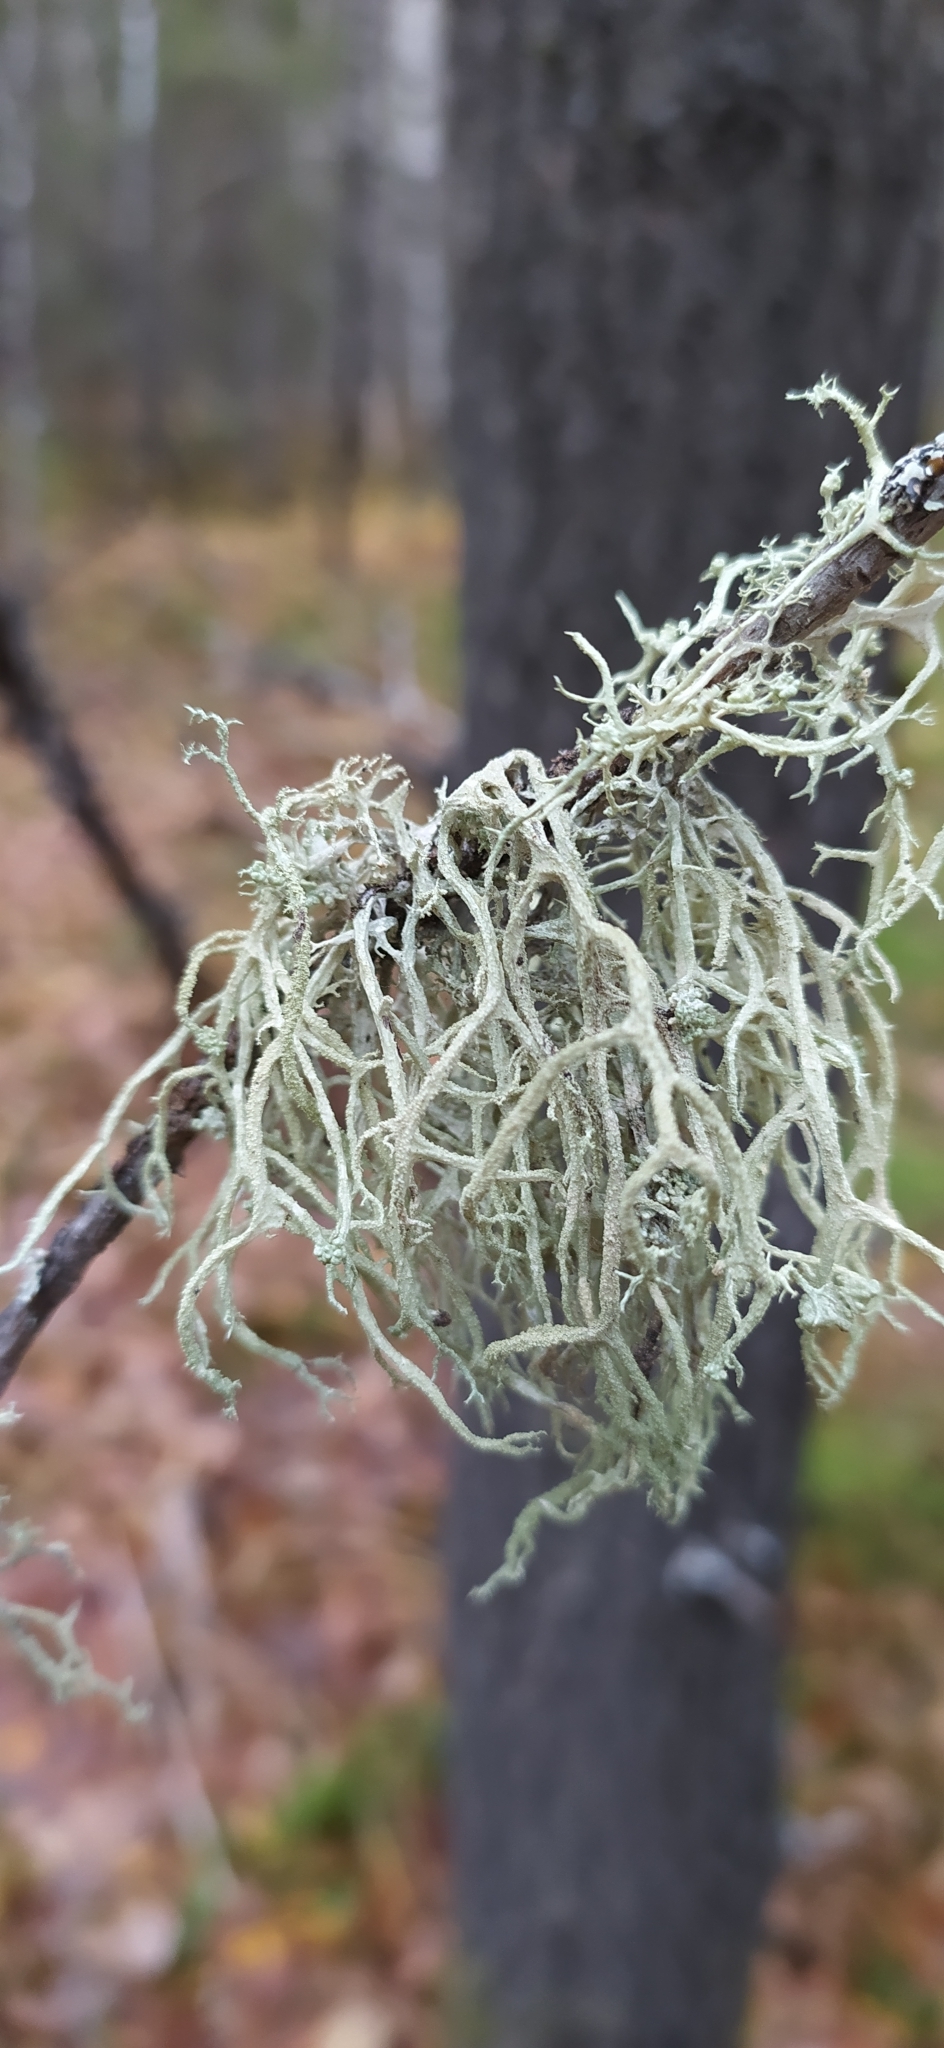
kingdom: Fungi
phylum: Ascomycota
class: Lecanoromycetes
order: Lecanorales
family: Parmeliaceae
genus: Evernia
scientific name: Evernia mesomorpha
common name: Boreal oak moss lichen
